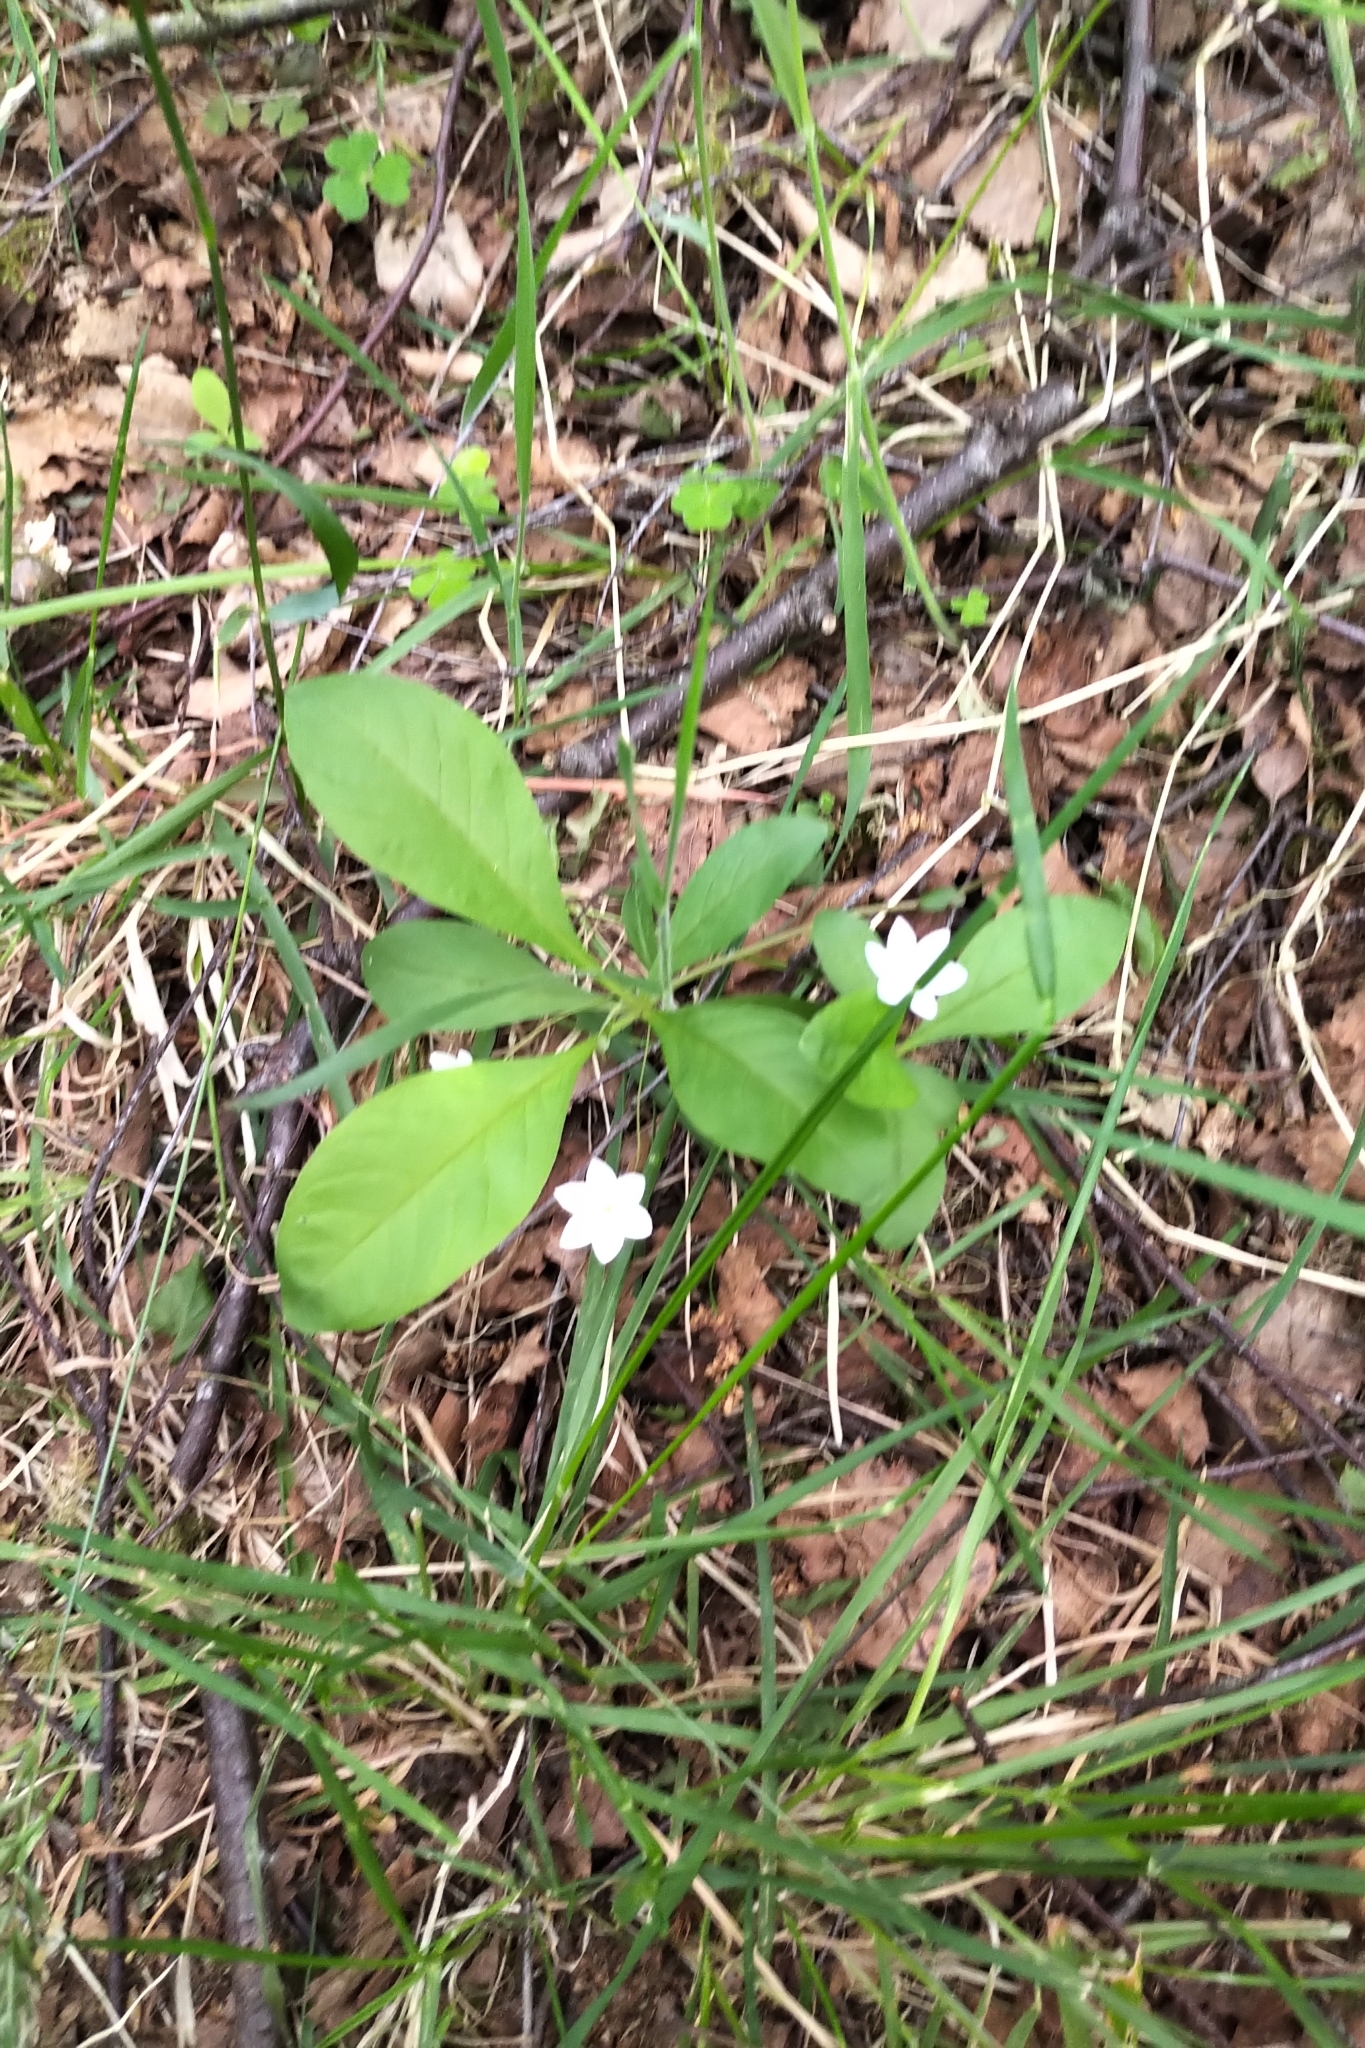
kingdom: Plantae
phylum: Tracheophyta
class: Magnoliopsida
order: Ericales
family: Primulaceae
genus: Lysimachia
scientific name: Lysimachia europaea
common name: Arctic starflower
